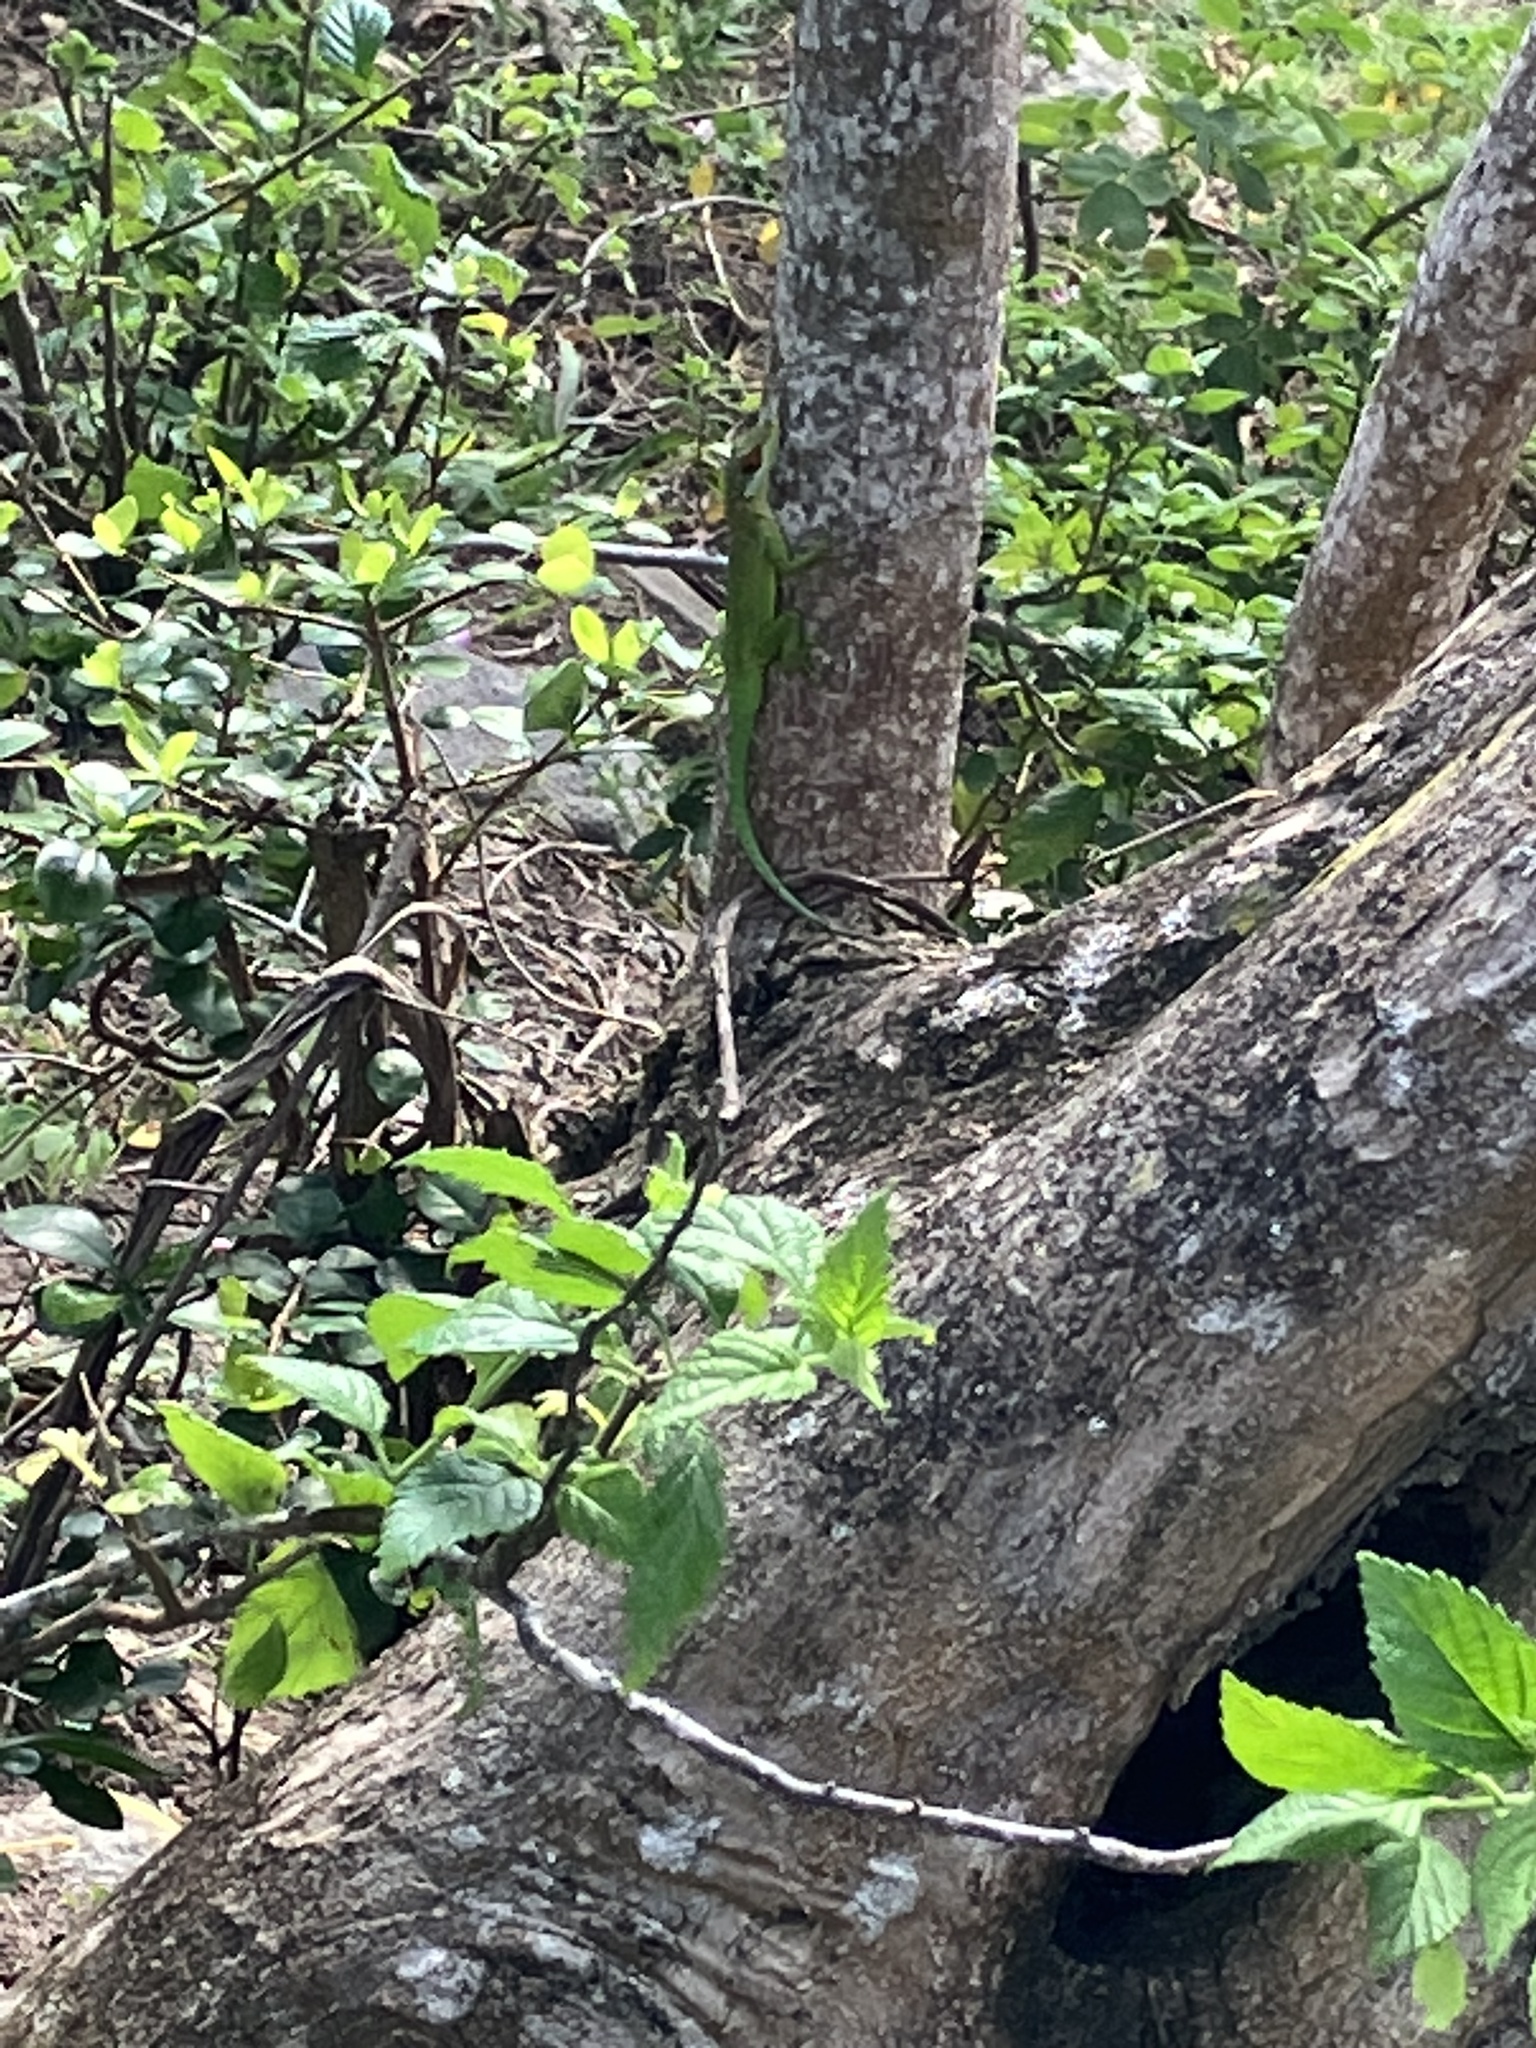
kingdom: Animalia
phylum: Chordata
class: Squamata
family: Dactyloidae
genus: Anolis
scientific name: Anolis lividus
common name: Montserrat anole
